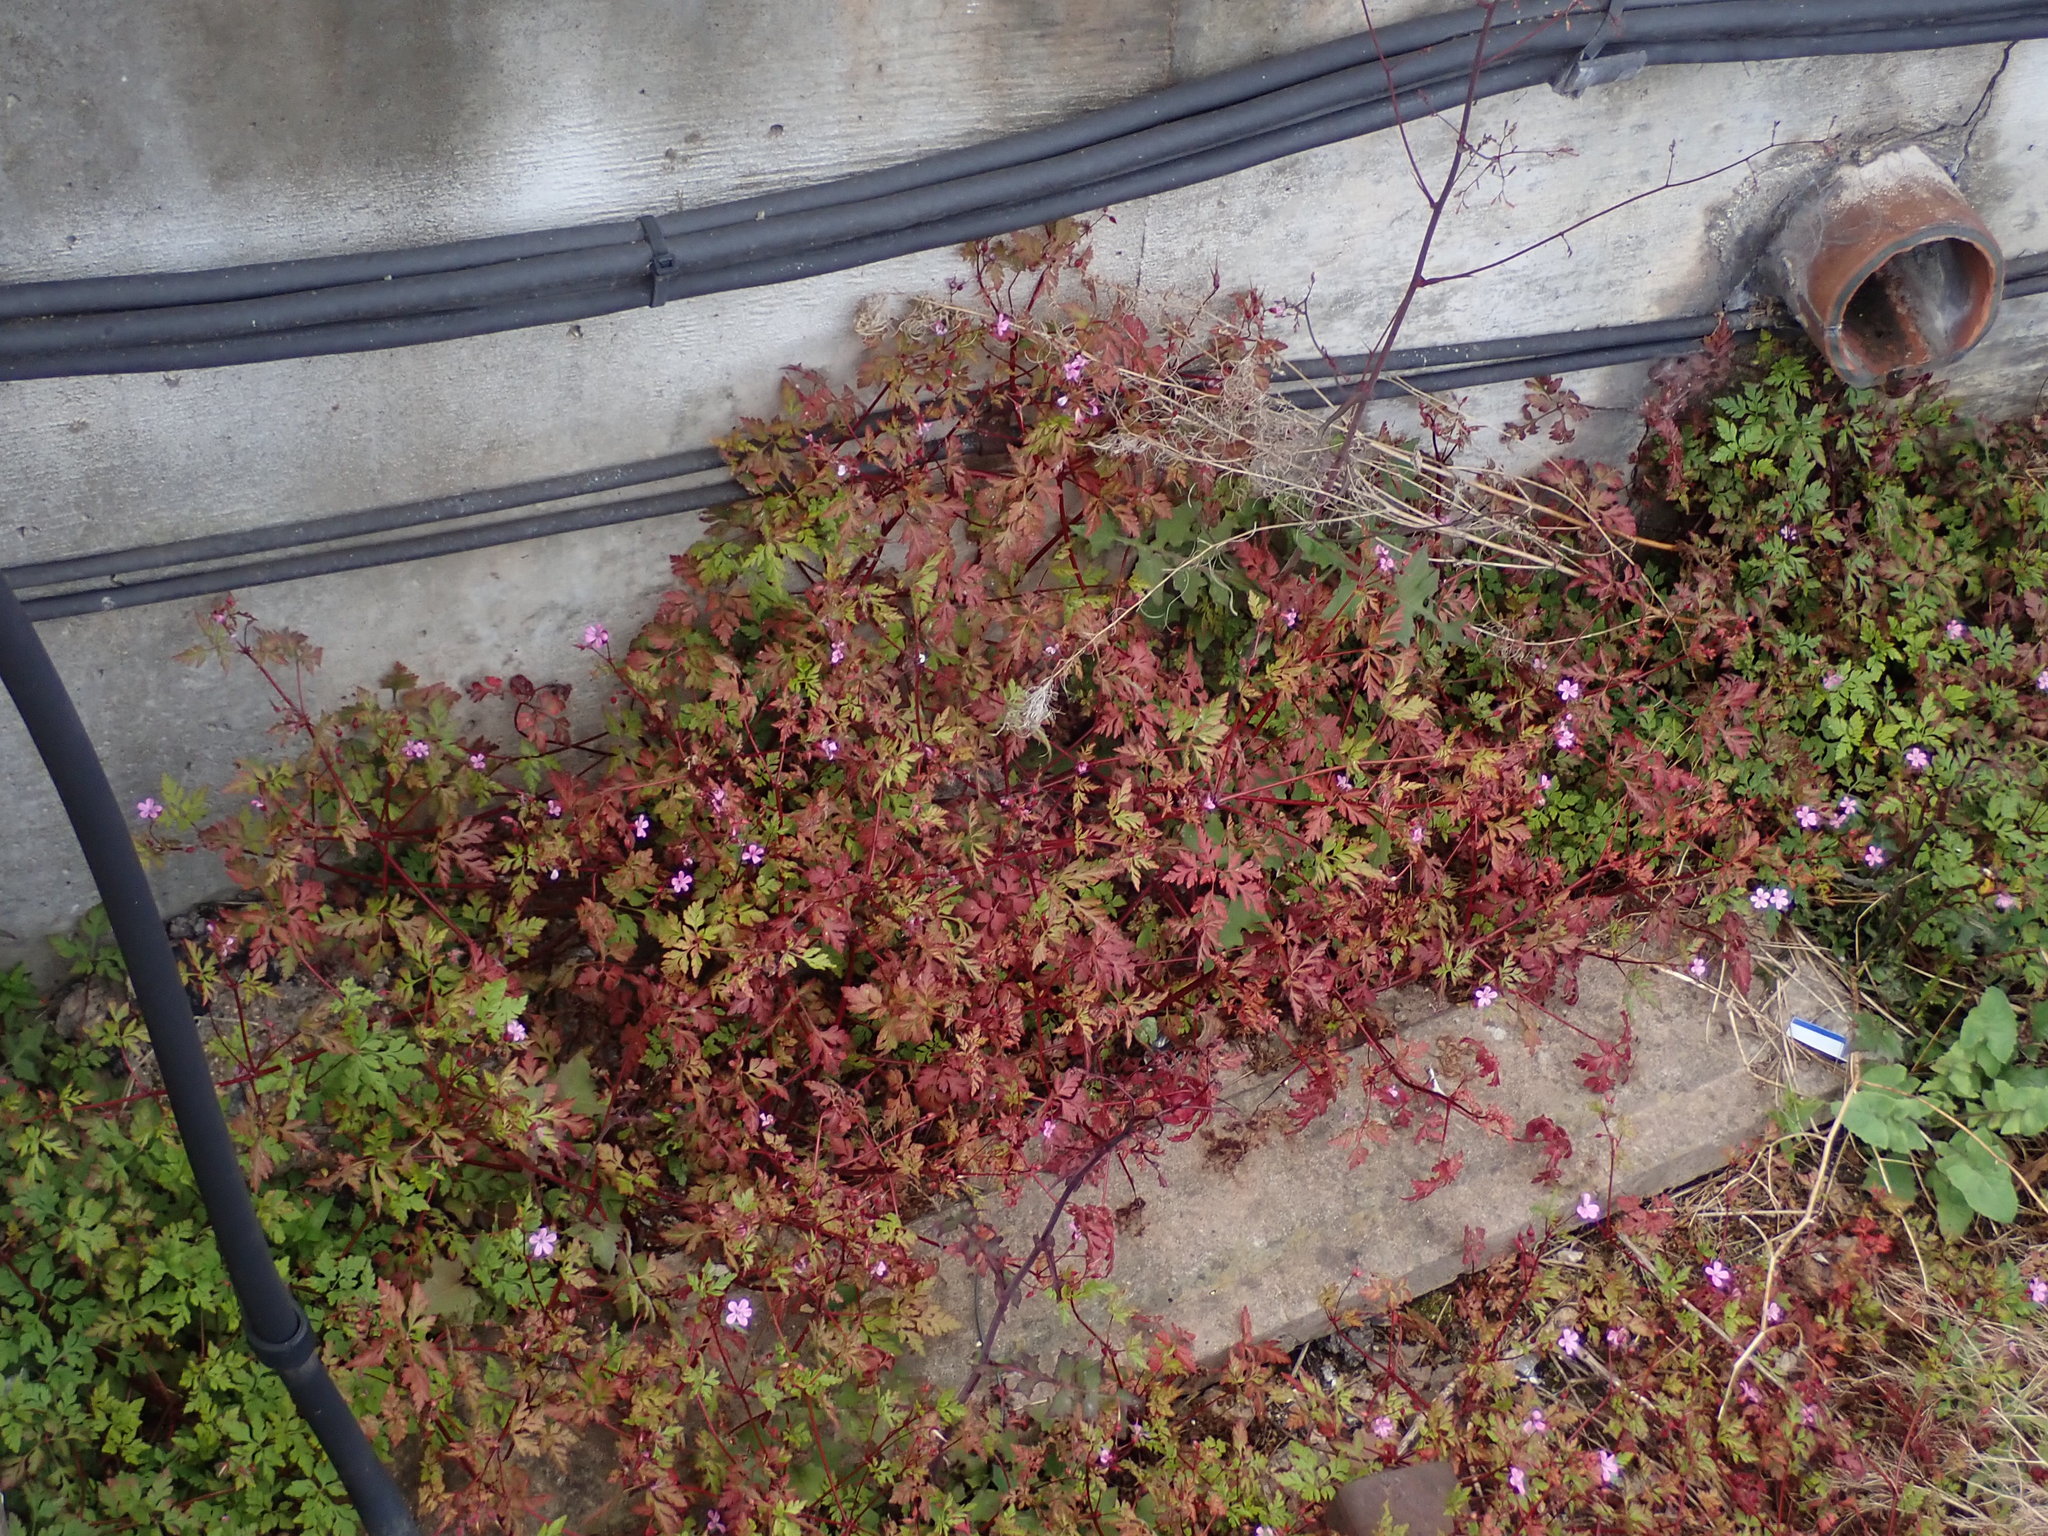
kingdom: Plantae
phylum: Tracheophyta
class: Magnoliopsida
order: Geraniales
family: Geraniaceae
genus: Geranium
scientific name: Geranium robertianum
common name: Herb-robert
